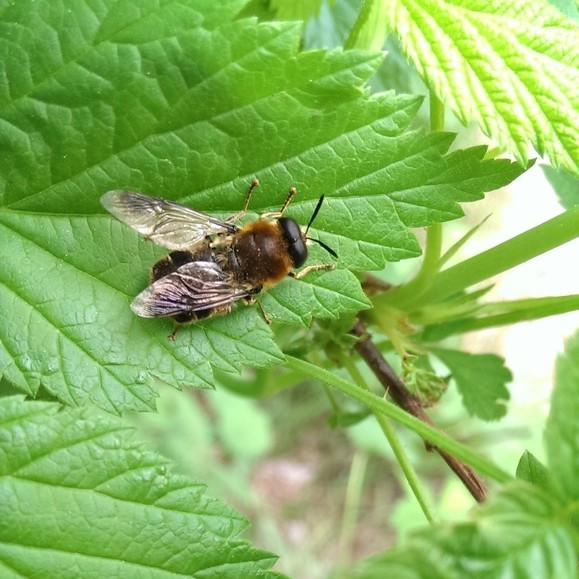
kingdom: Animalia
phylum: Arthropoda
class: Insecta
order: Diptera
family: Stratiomyidae
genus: Stratiomys
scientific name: Stratiomys longicornis
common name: Long-horned general
